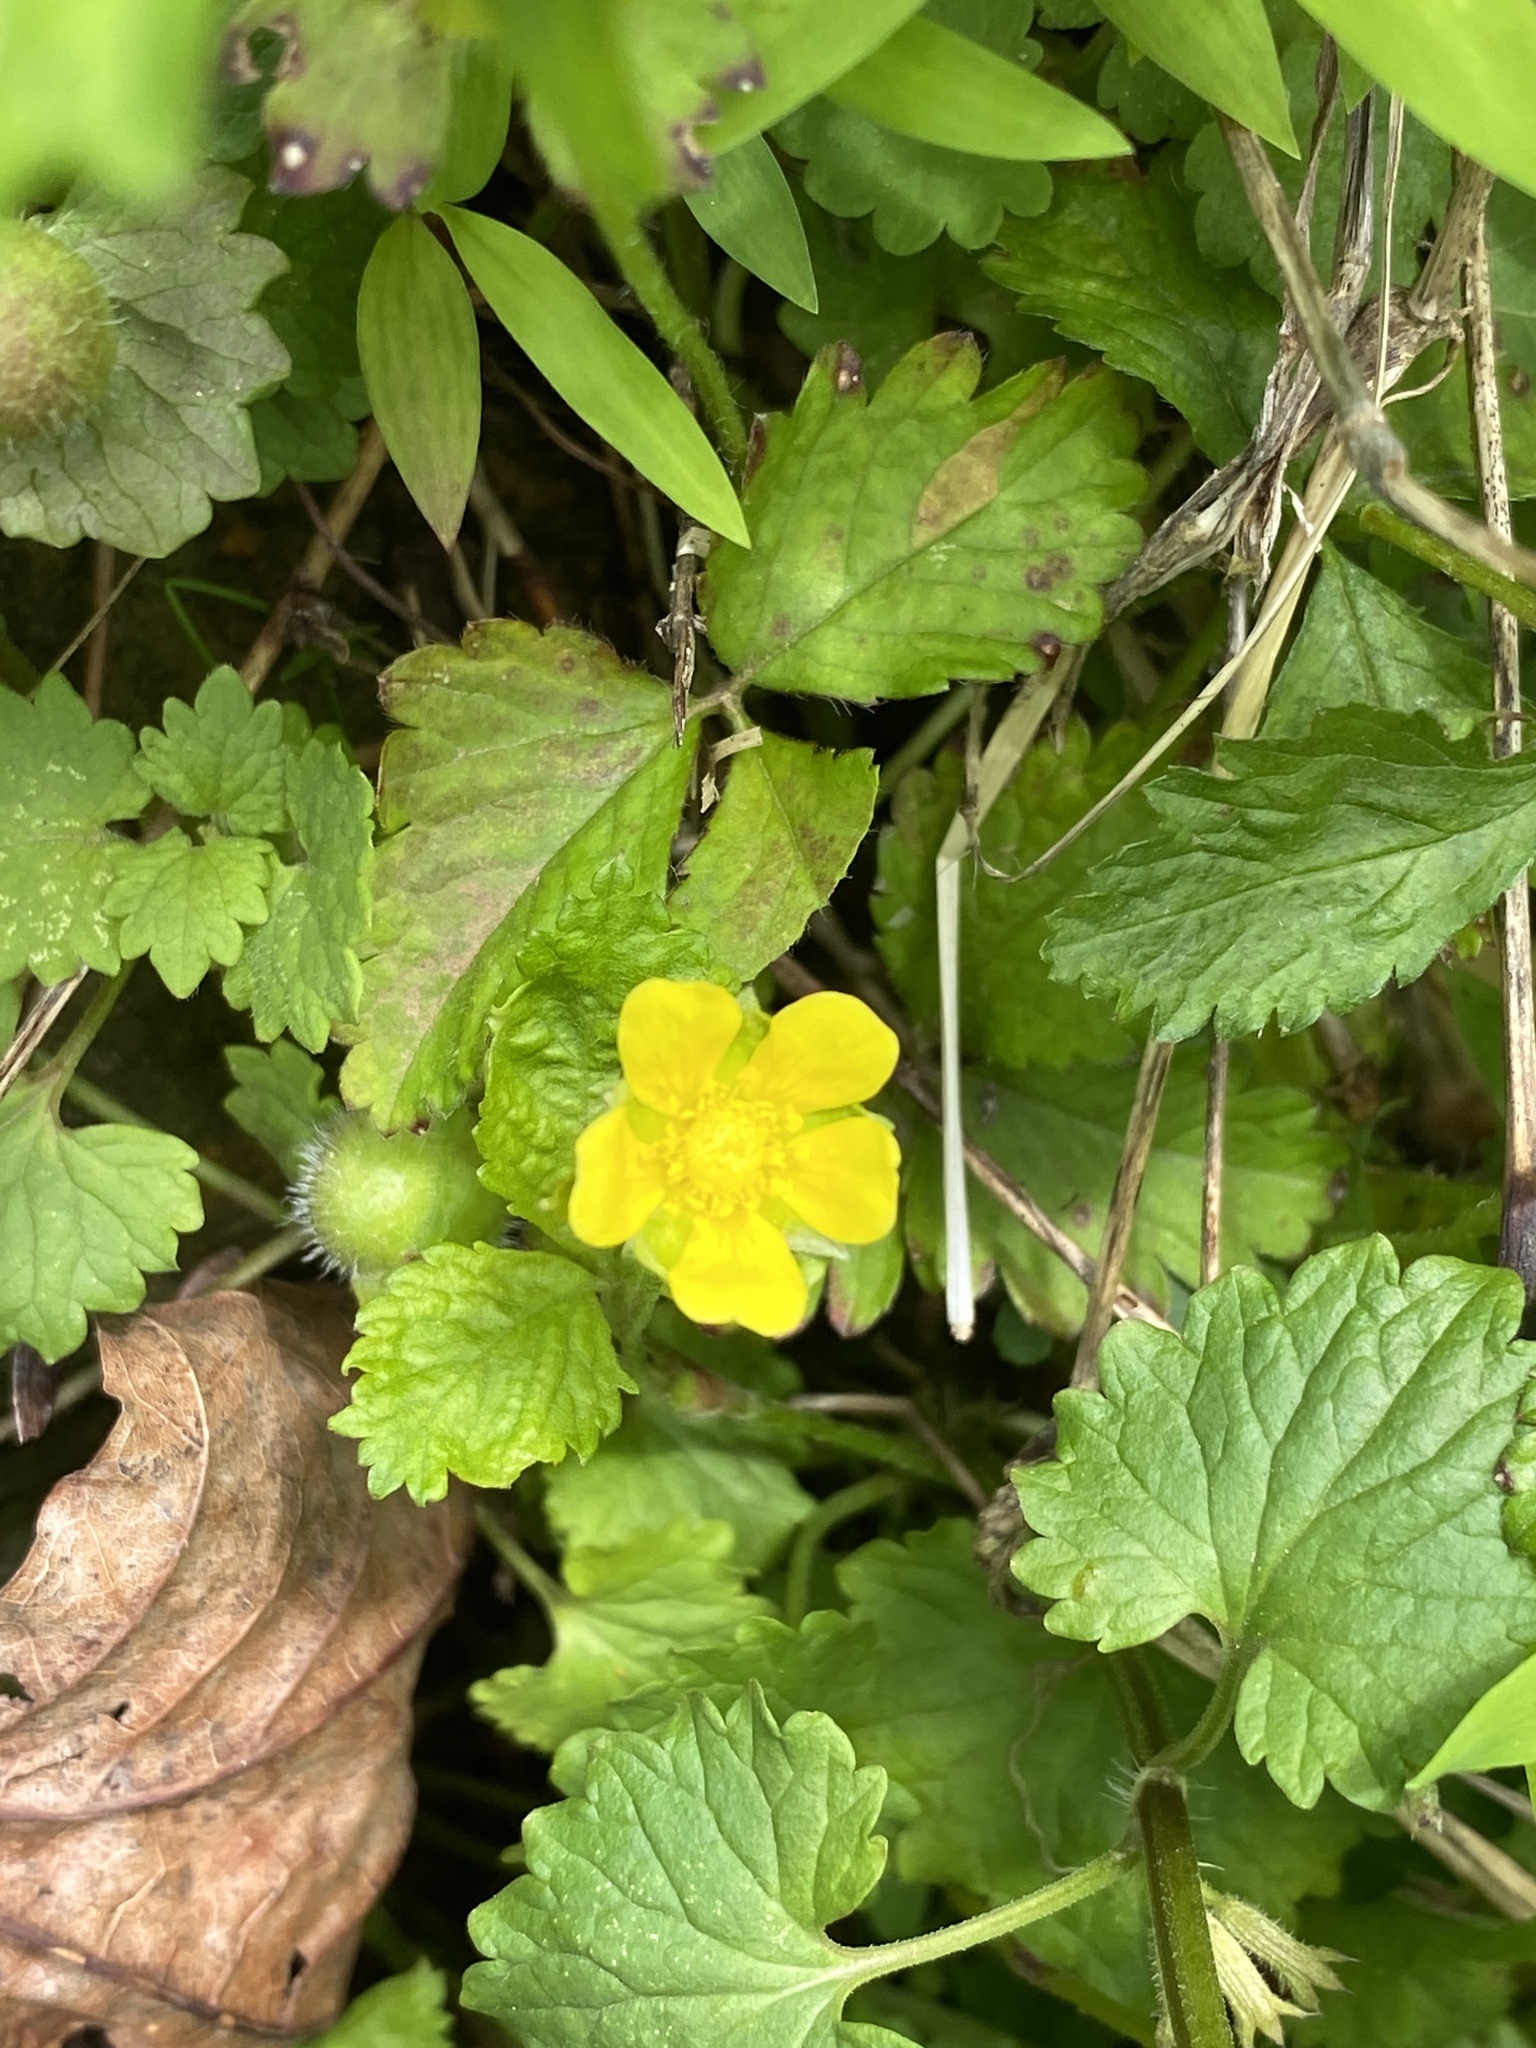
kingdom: Plantae
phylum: Tracheophyta
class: Magnoliopsida
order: Rosales
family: Rosaceae
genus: Potentilla
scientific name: Potentilla indica
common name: Yellow-flowered strawberry
